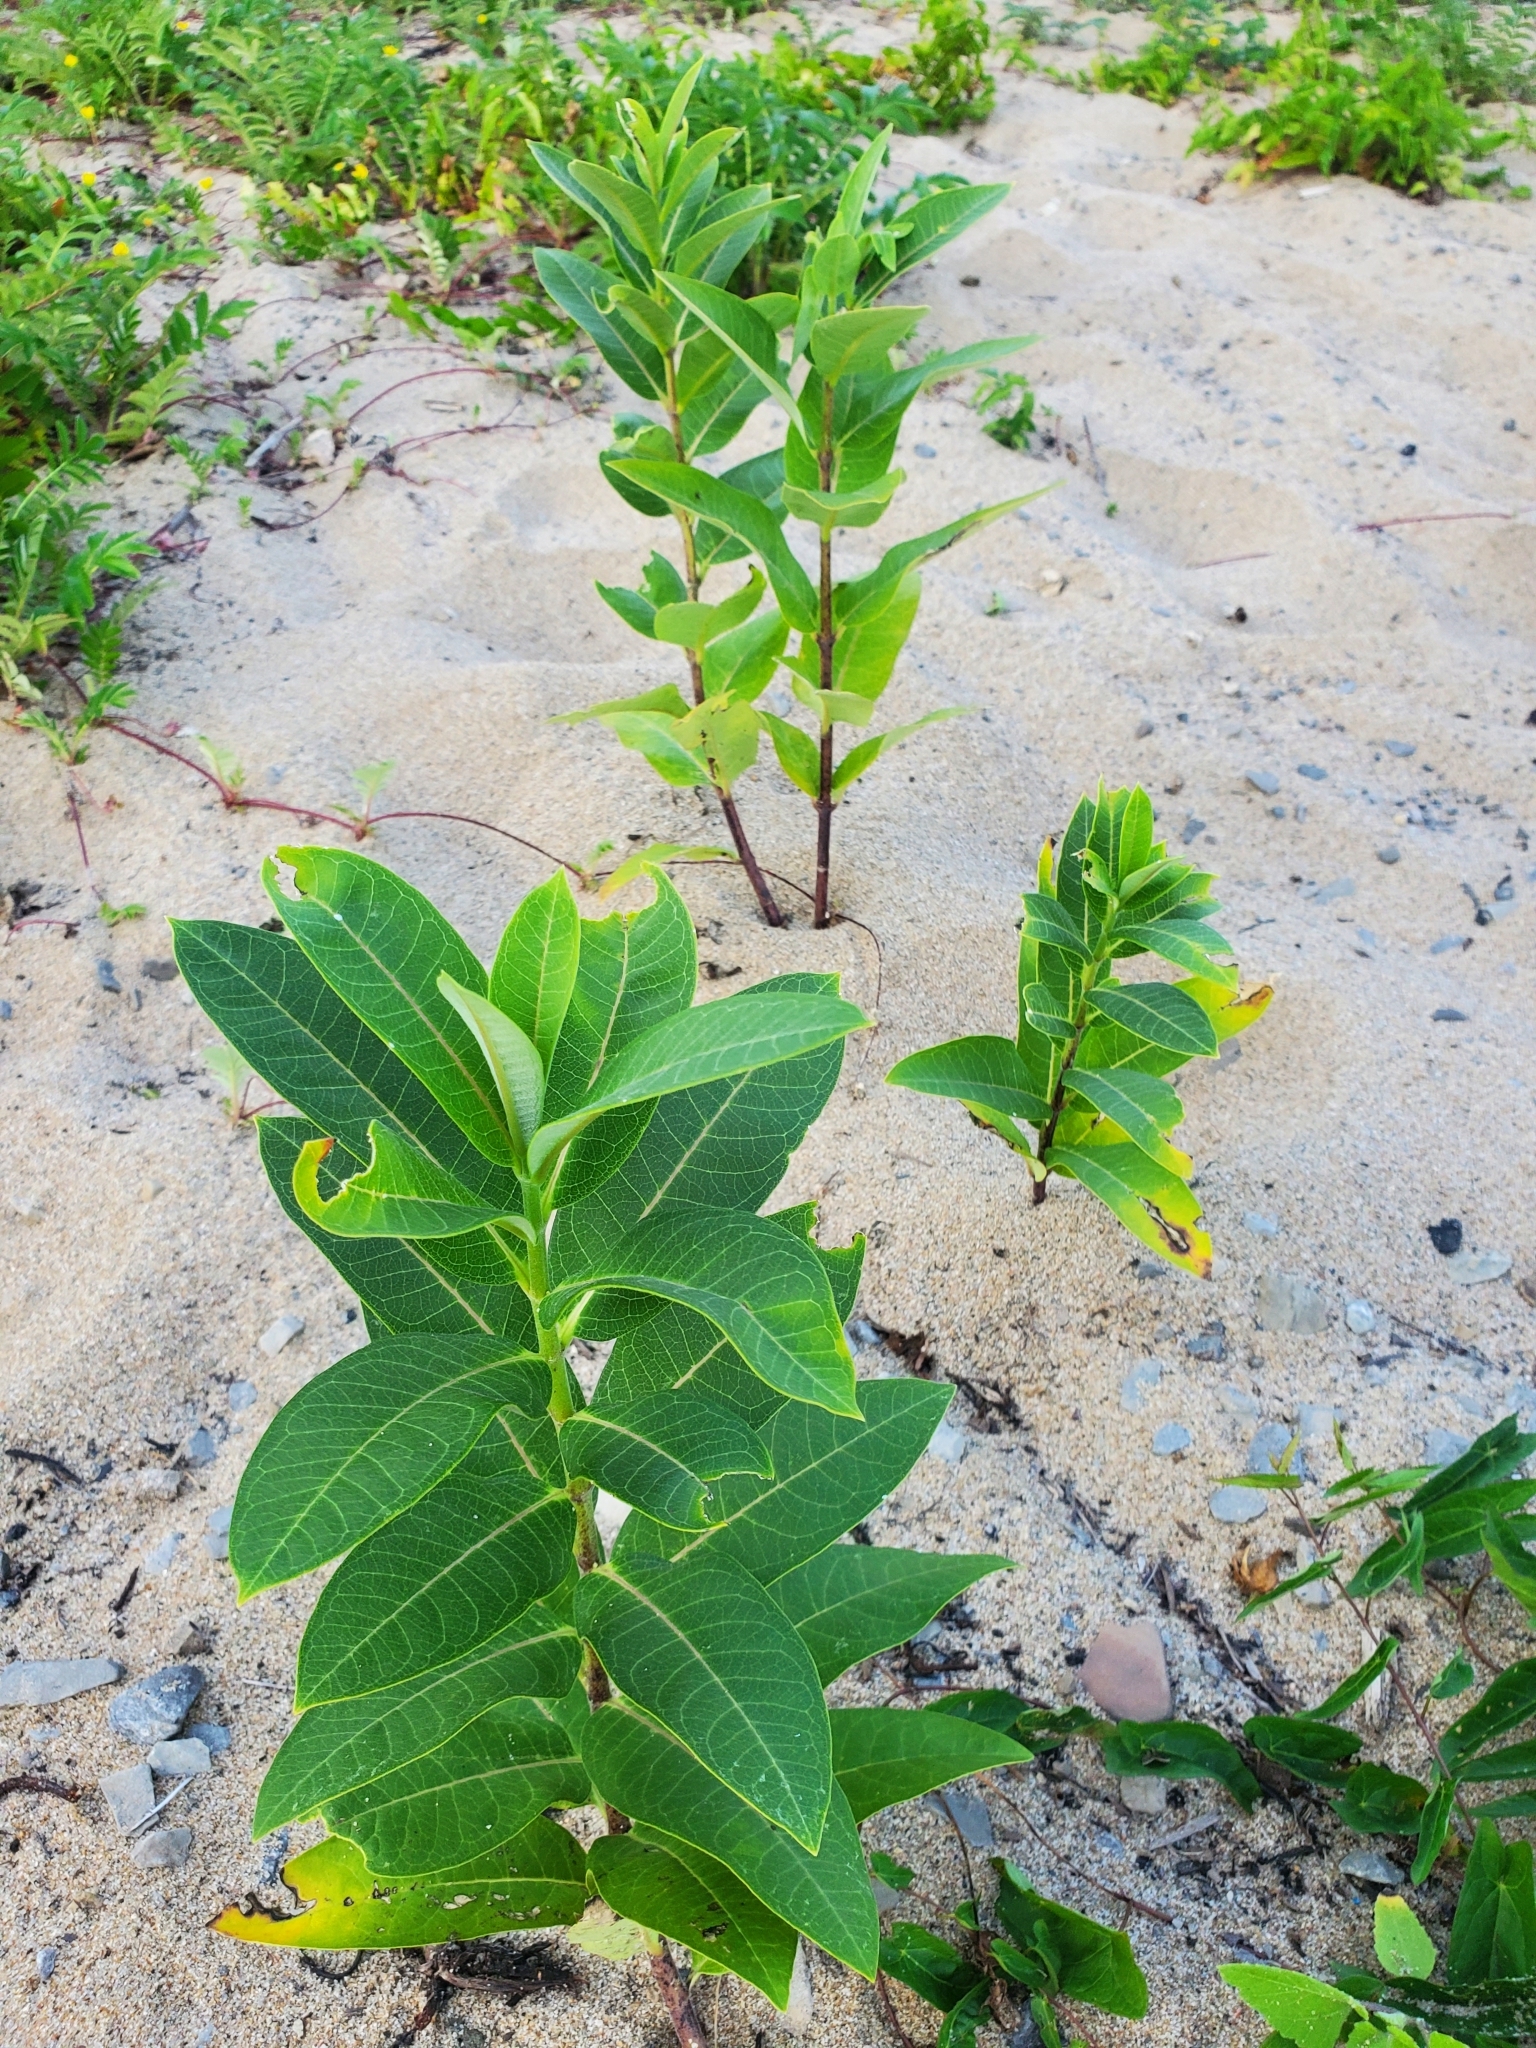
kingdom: Plantae
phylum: Tracheophyta
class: Magnoliopsida
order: Gentianales
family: Apocynaceae
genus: Asclepias
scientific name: Asclepias syriaca
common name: Common milkweed
